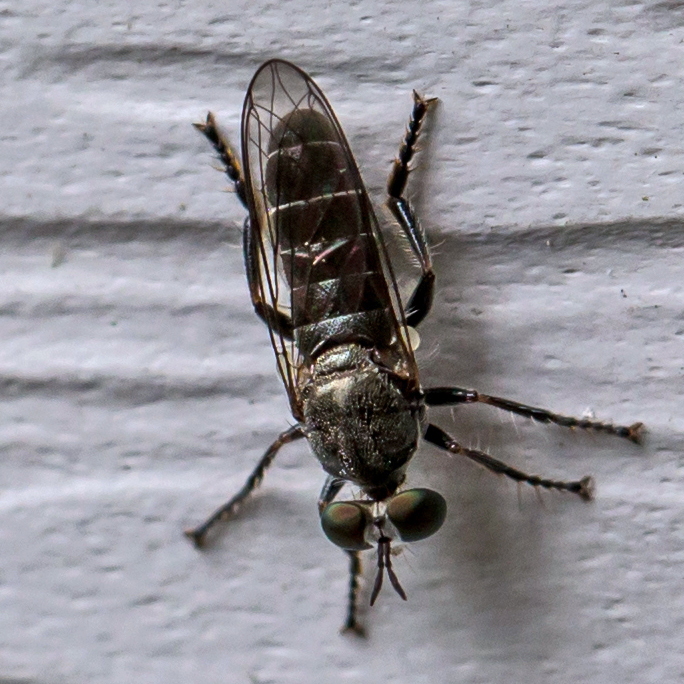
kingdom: Animalia
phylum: Arthropoda
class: Insecta
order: Diptera
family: Asilidae
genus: Atomosia
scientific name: Atomosia puella
